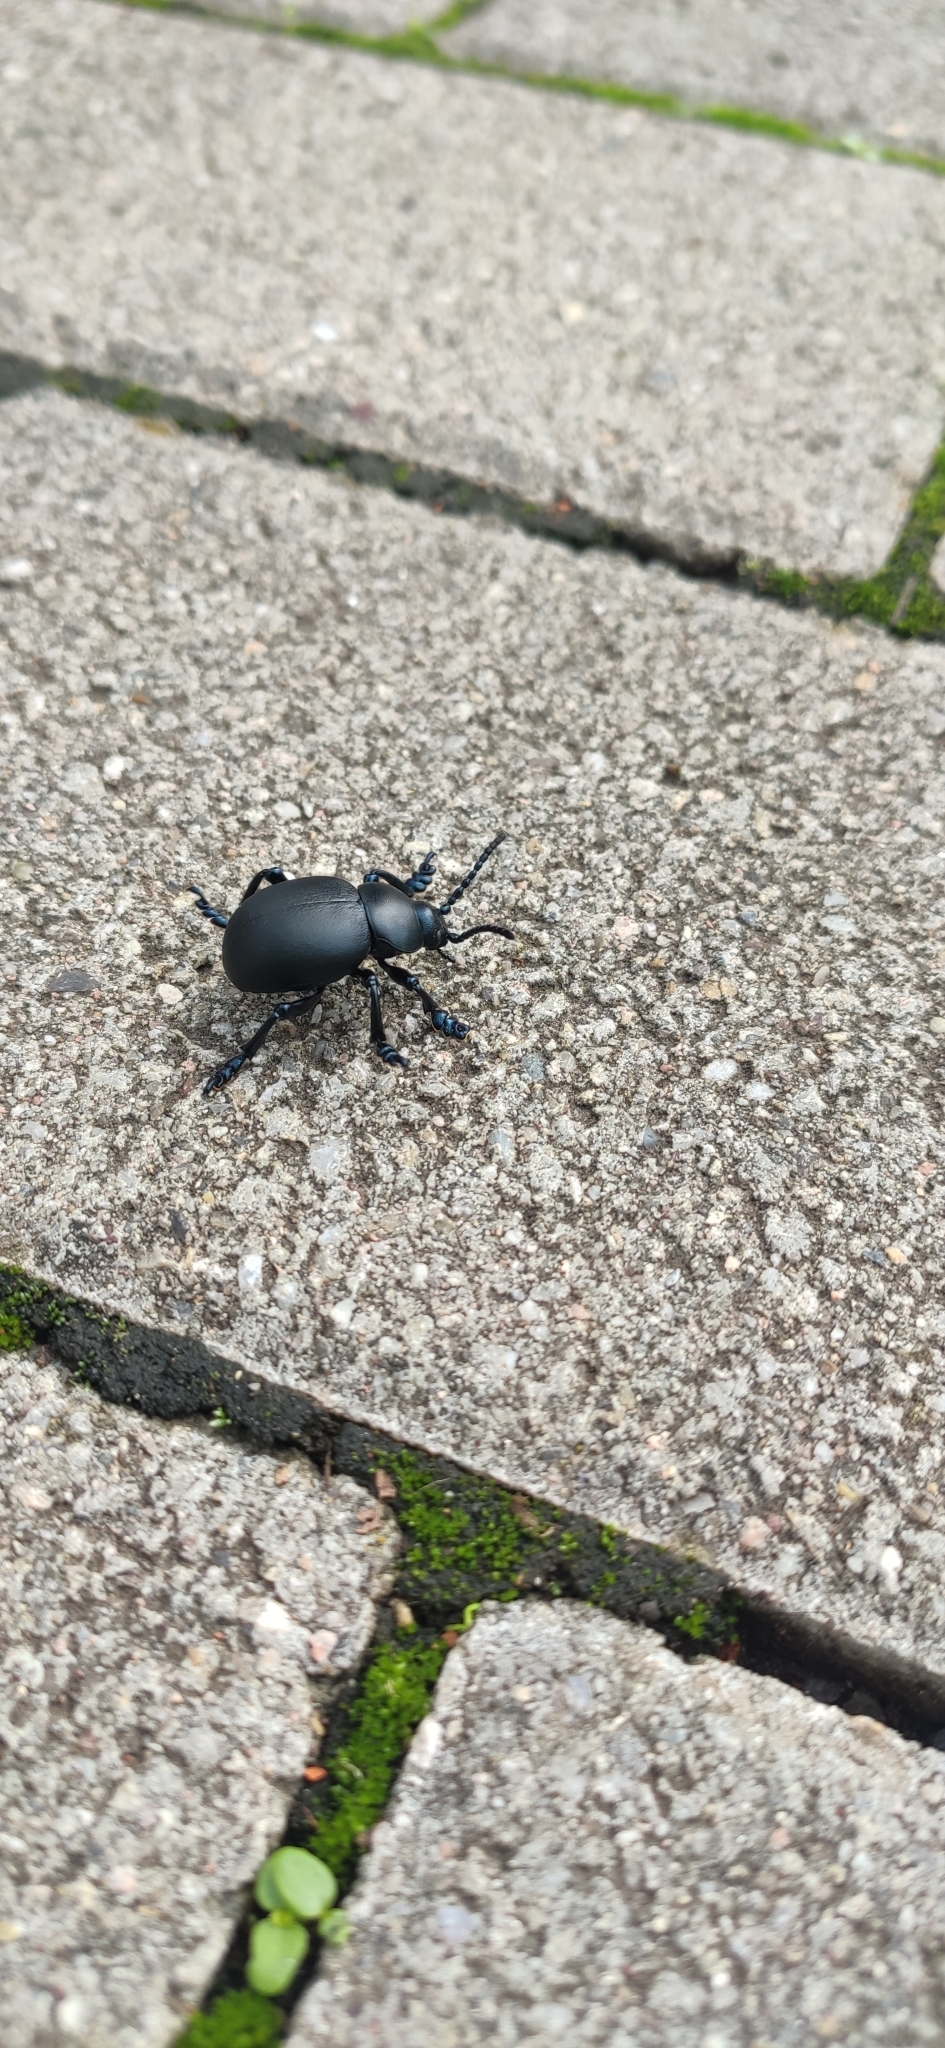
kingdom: Animalia
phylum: Arthropoda
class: Insecta
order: Coleoptera
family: Chrysomelidae
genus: Timarcha
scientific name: Timarcha tenebricosa
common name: Bloody-nosed beetle
